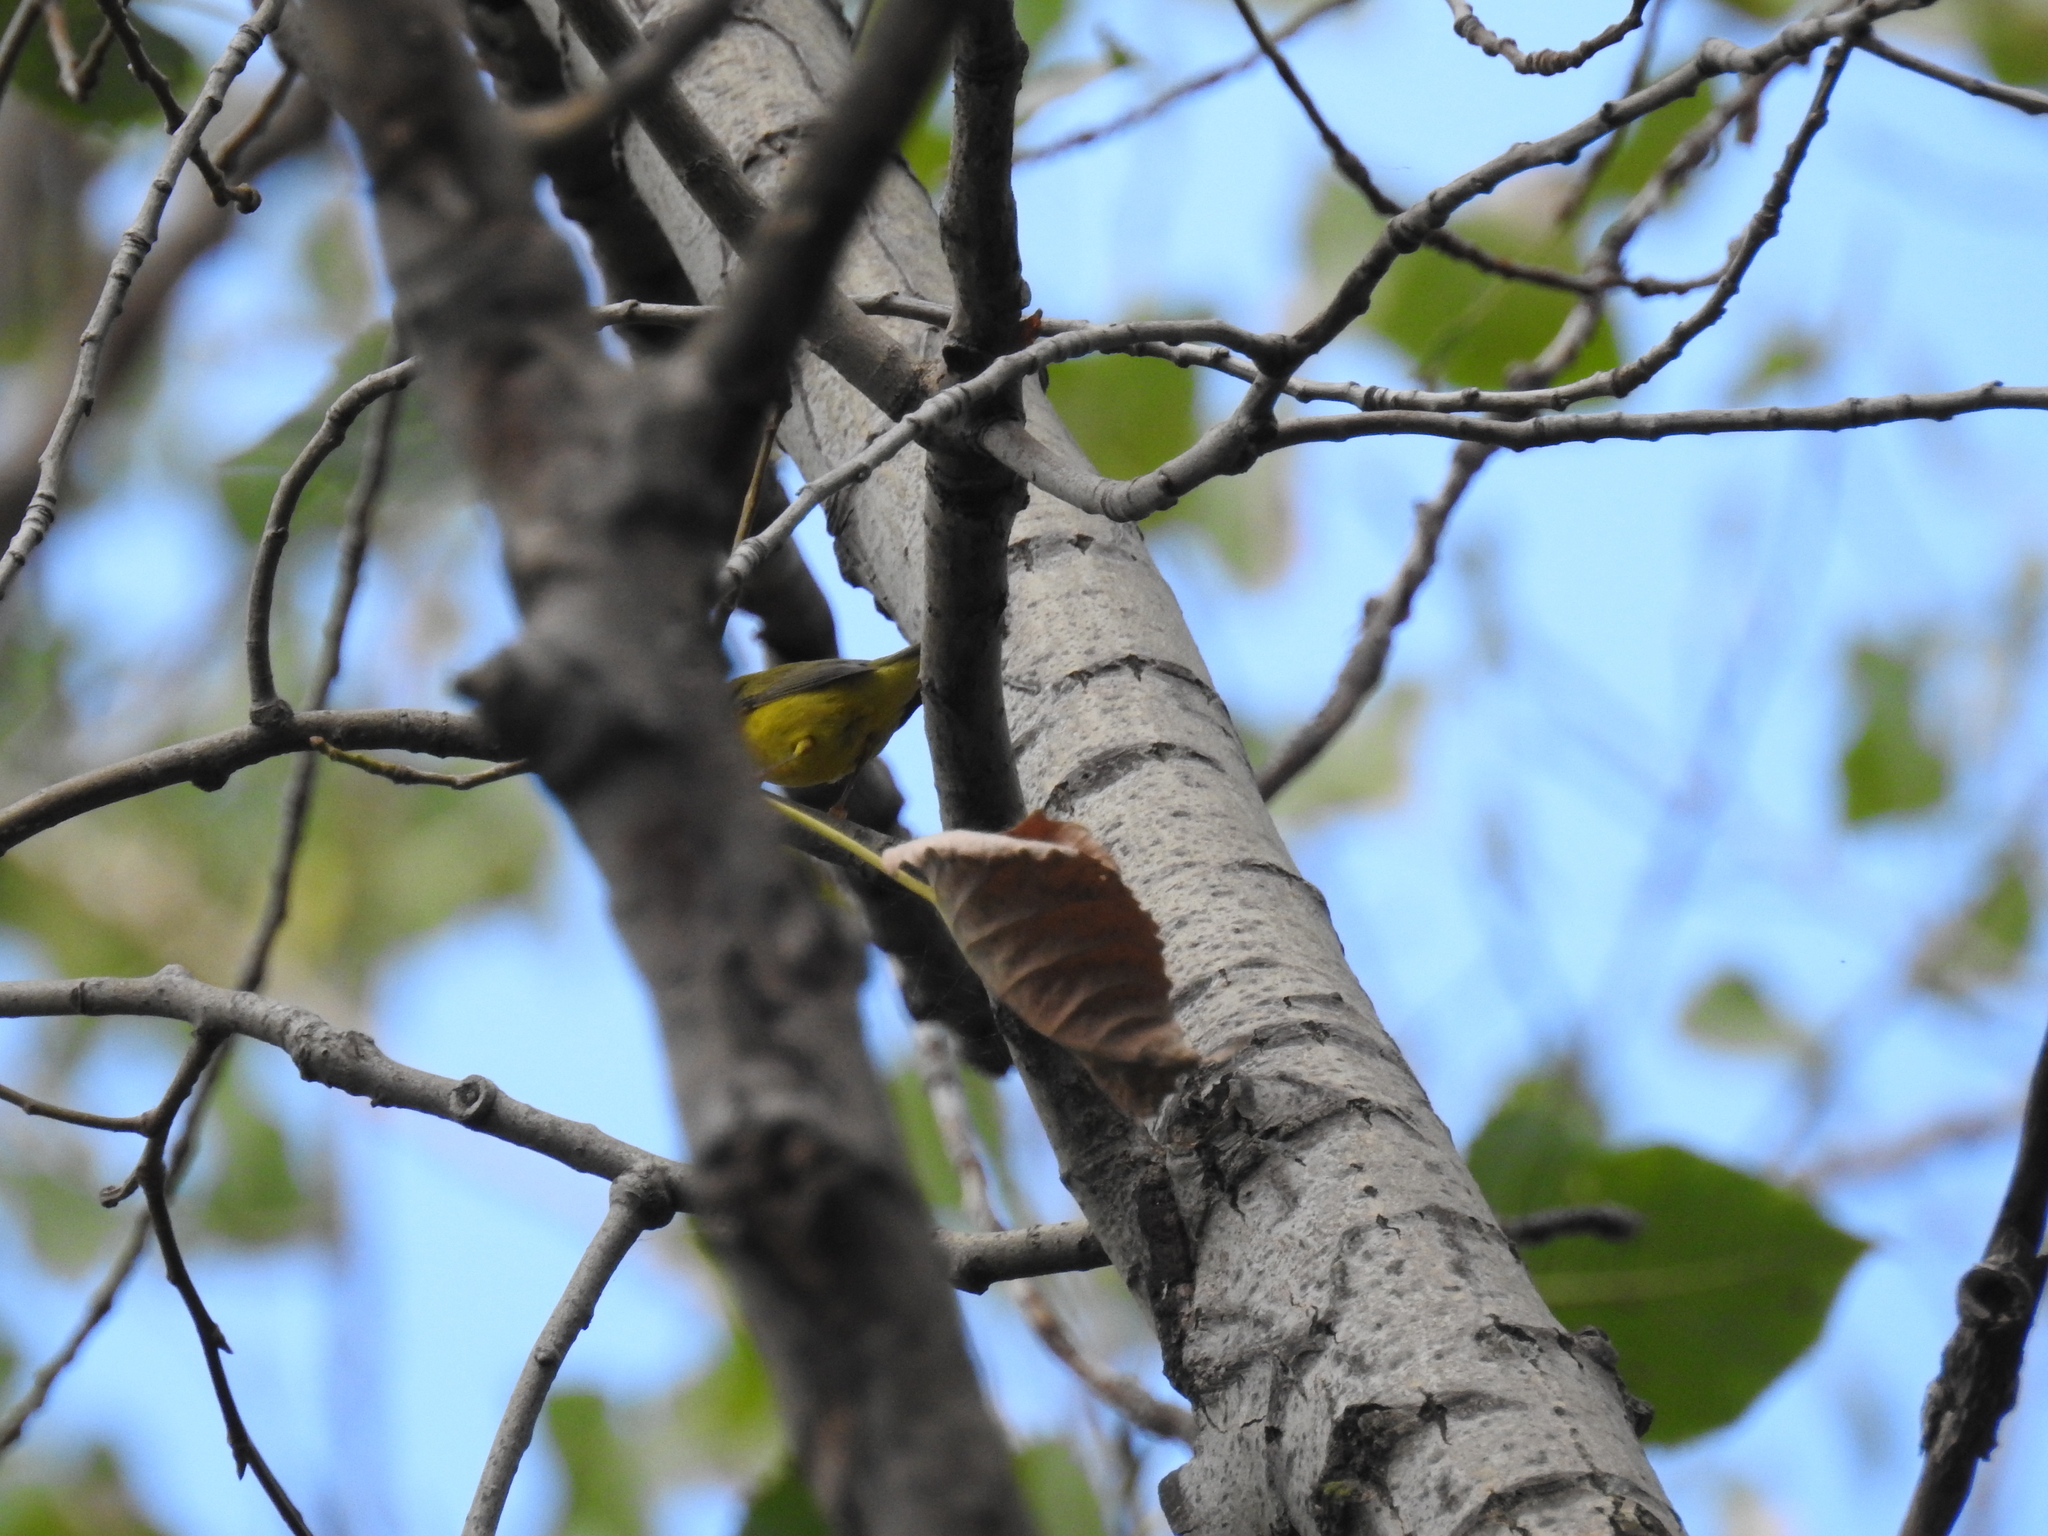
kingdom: Animalia
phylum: Chordata
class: Aves
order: Passeriformes
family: Parulidae
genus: Cardellina
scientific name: Cardellina pusilla
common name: Wilson's warbler
